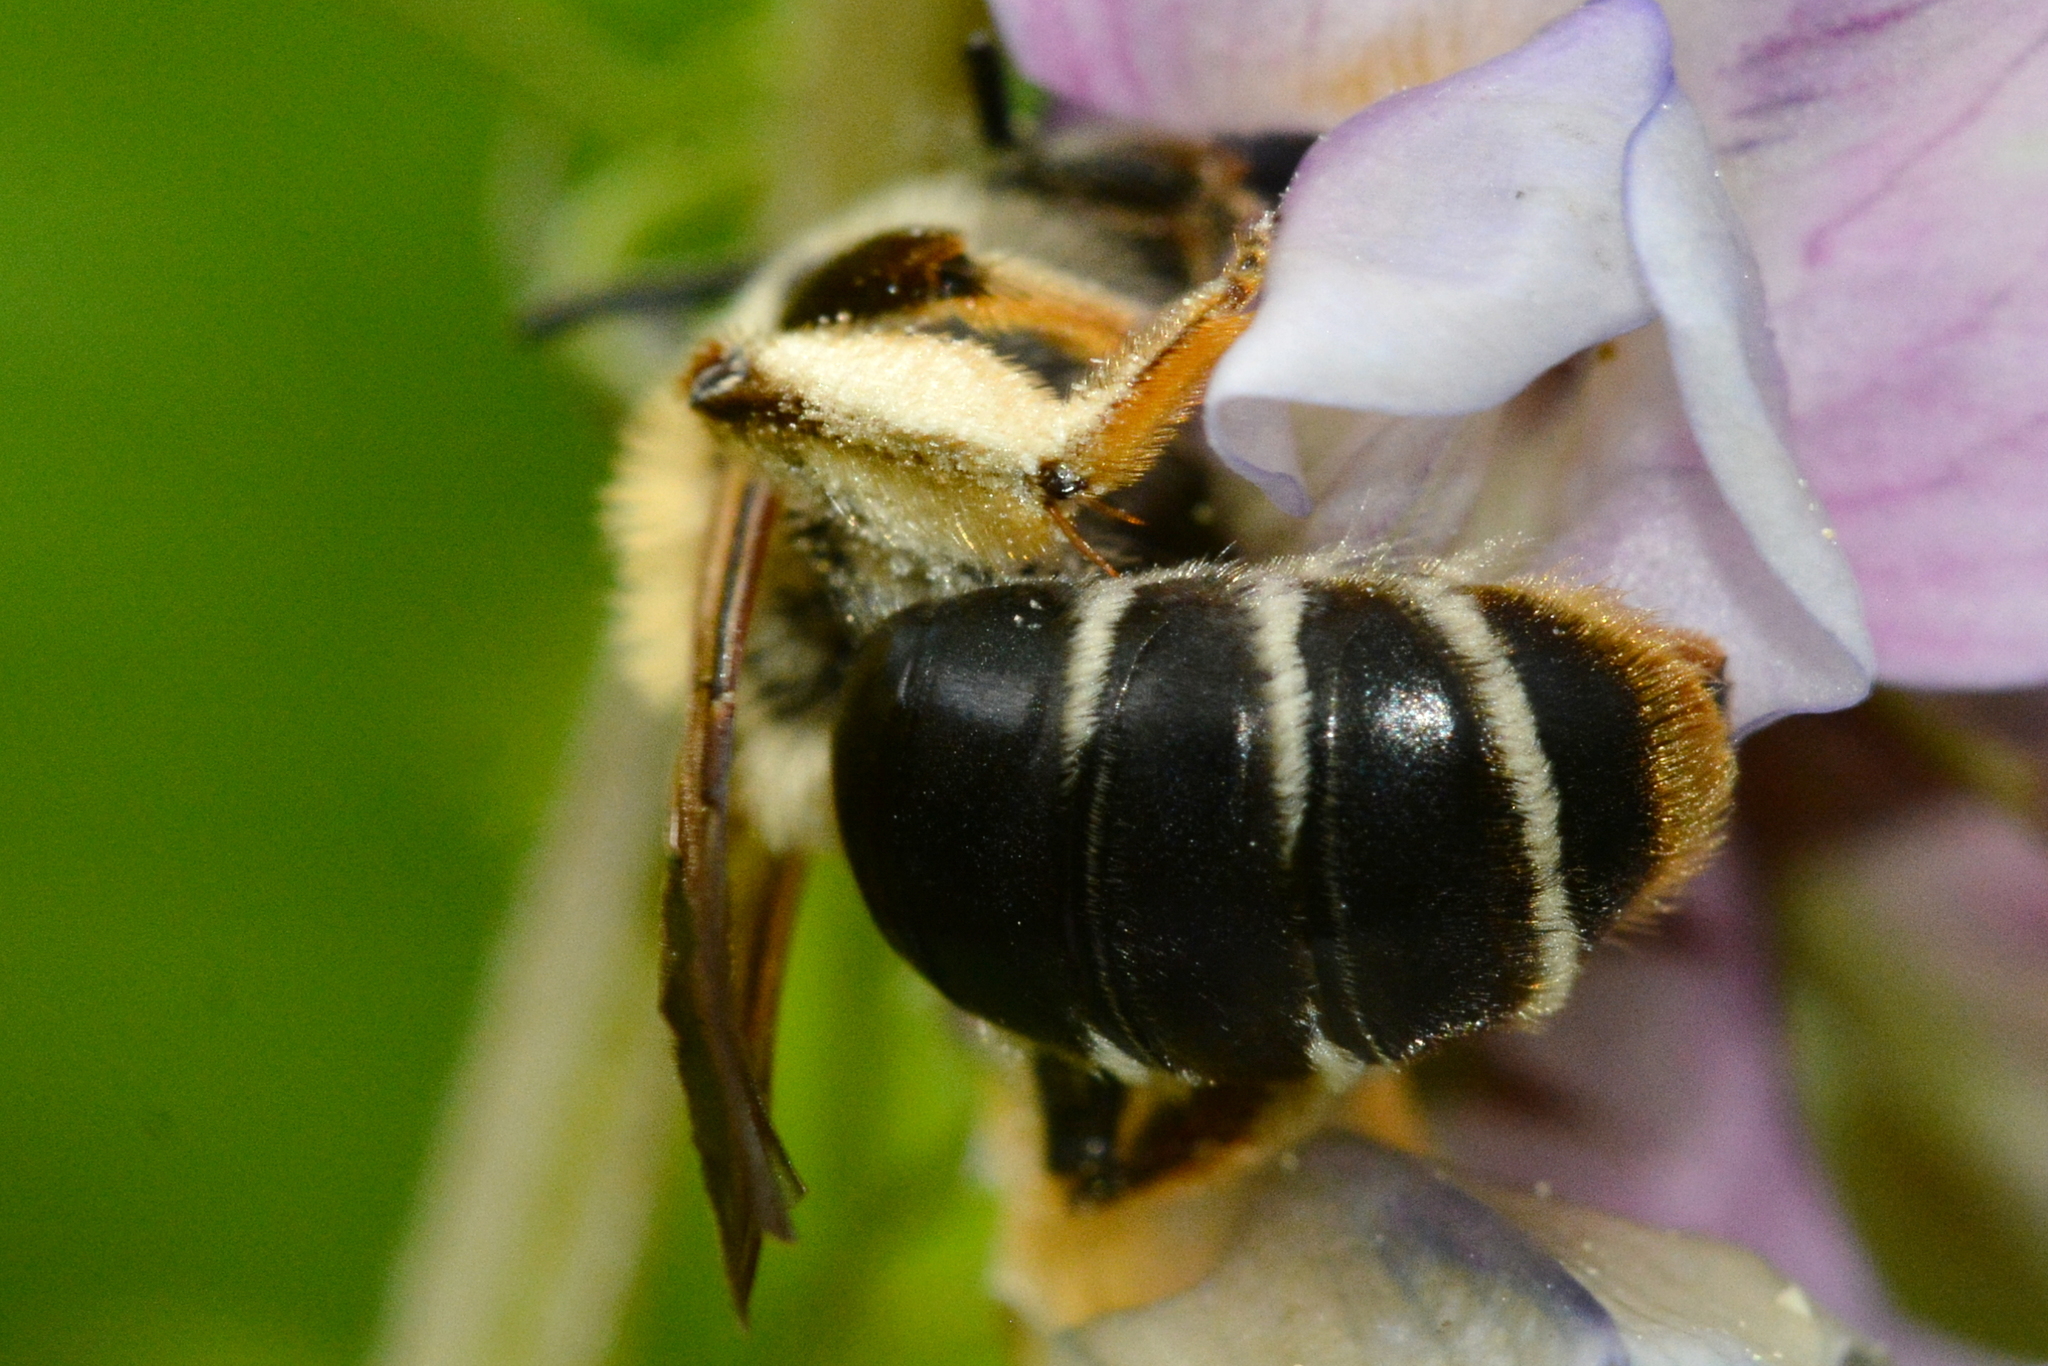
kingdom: Animalia
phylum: Arthropoda
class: Insecta
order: Hymenoptera
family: Andrenidae
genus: Andrena
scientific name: Andrena lathyri
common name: Burbage mining bee
